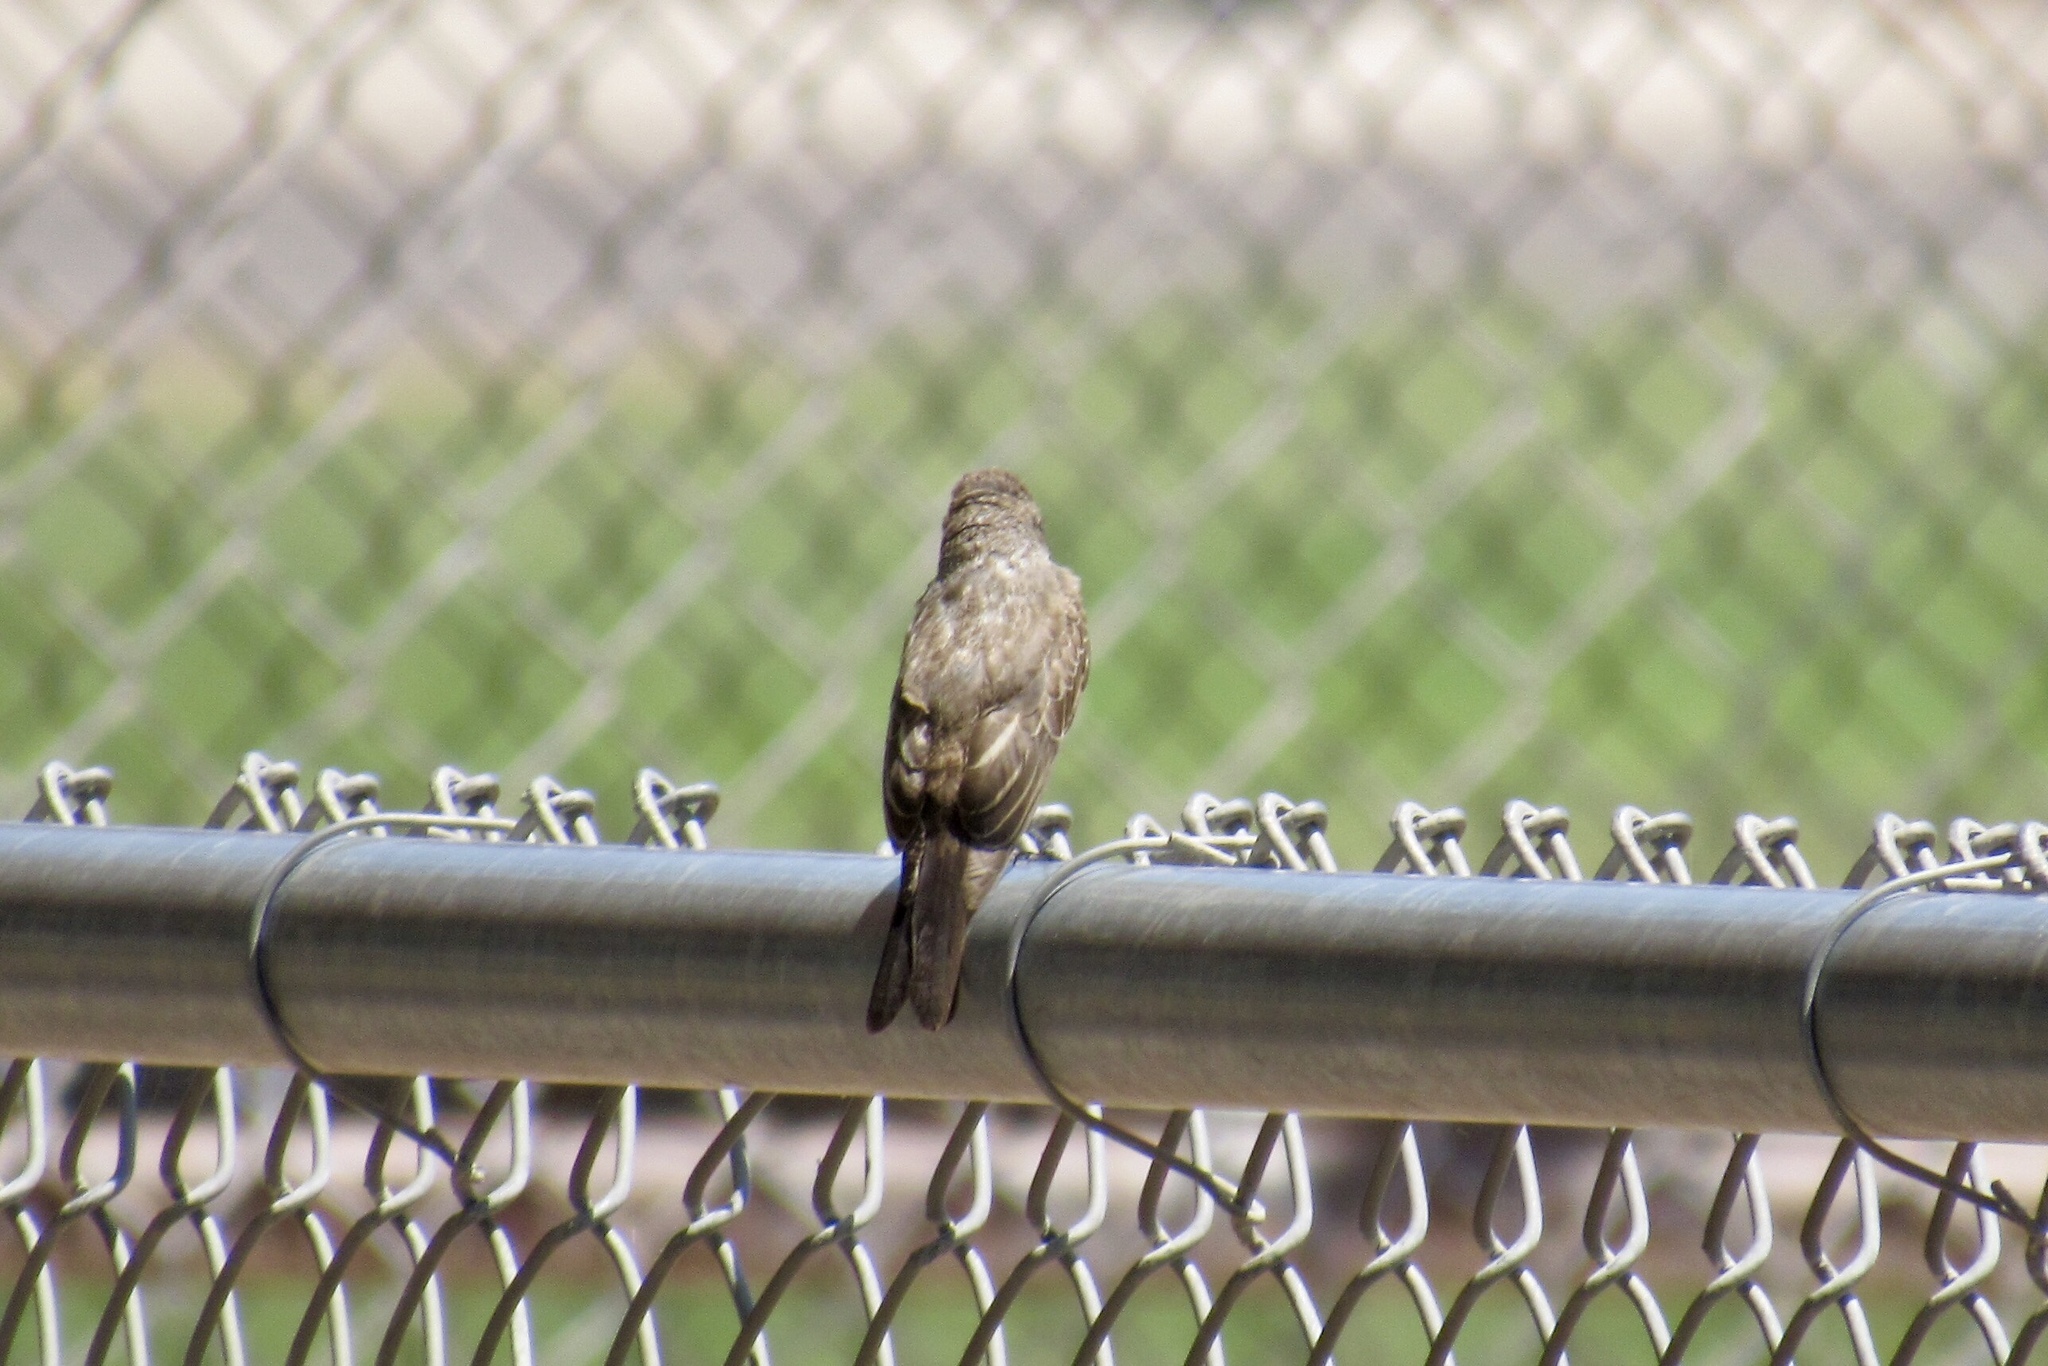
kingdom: Animalia
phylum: Chordata
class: Aves
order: Passeriformes
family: Tyrannidae
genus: Pyrocephalus
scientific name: Pyrocephalus rubinus
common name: Vermilion flycatcher
